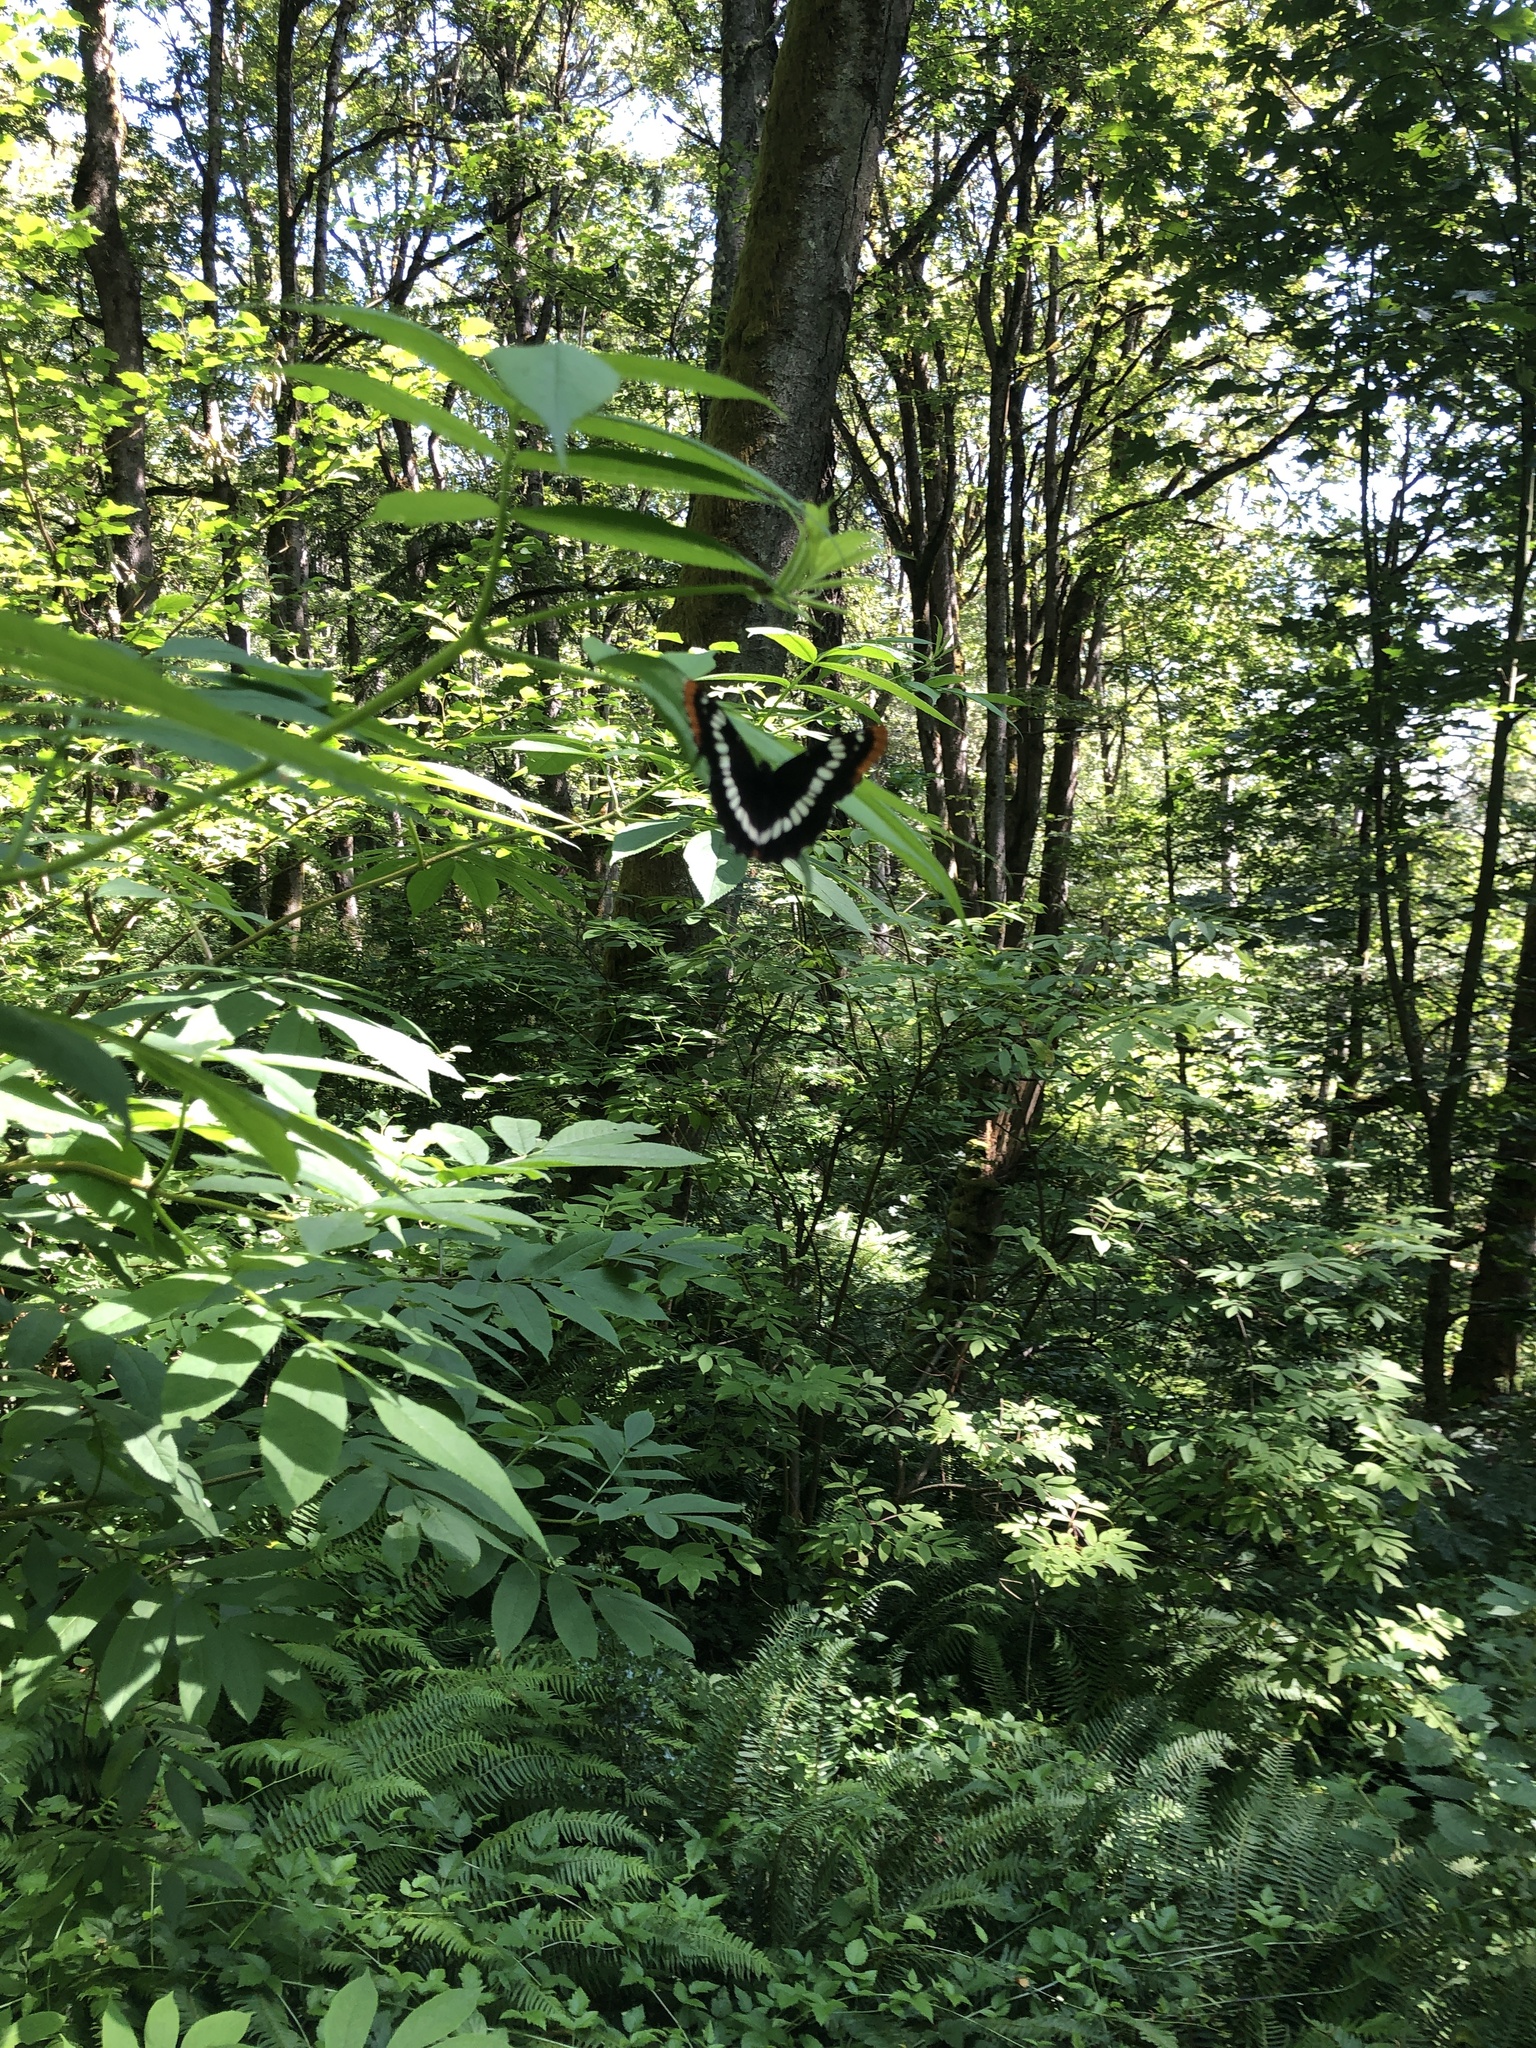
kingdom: Animalia
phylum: Arthropoda
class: Insecta
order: Lepidoptera
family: Nymphalidae
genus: Limenitis
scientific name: Limenitis lorquini
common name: Lorquin's admiral
